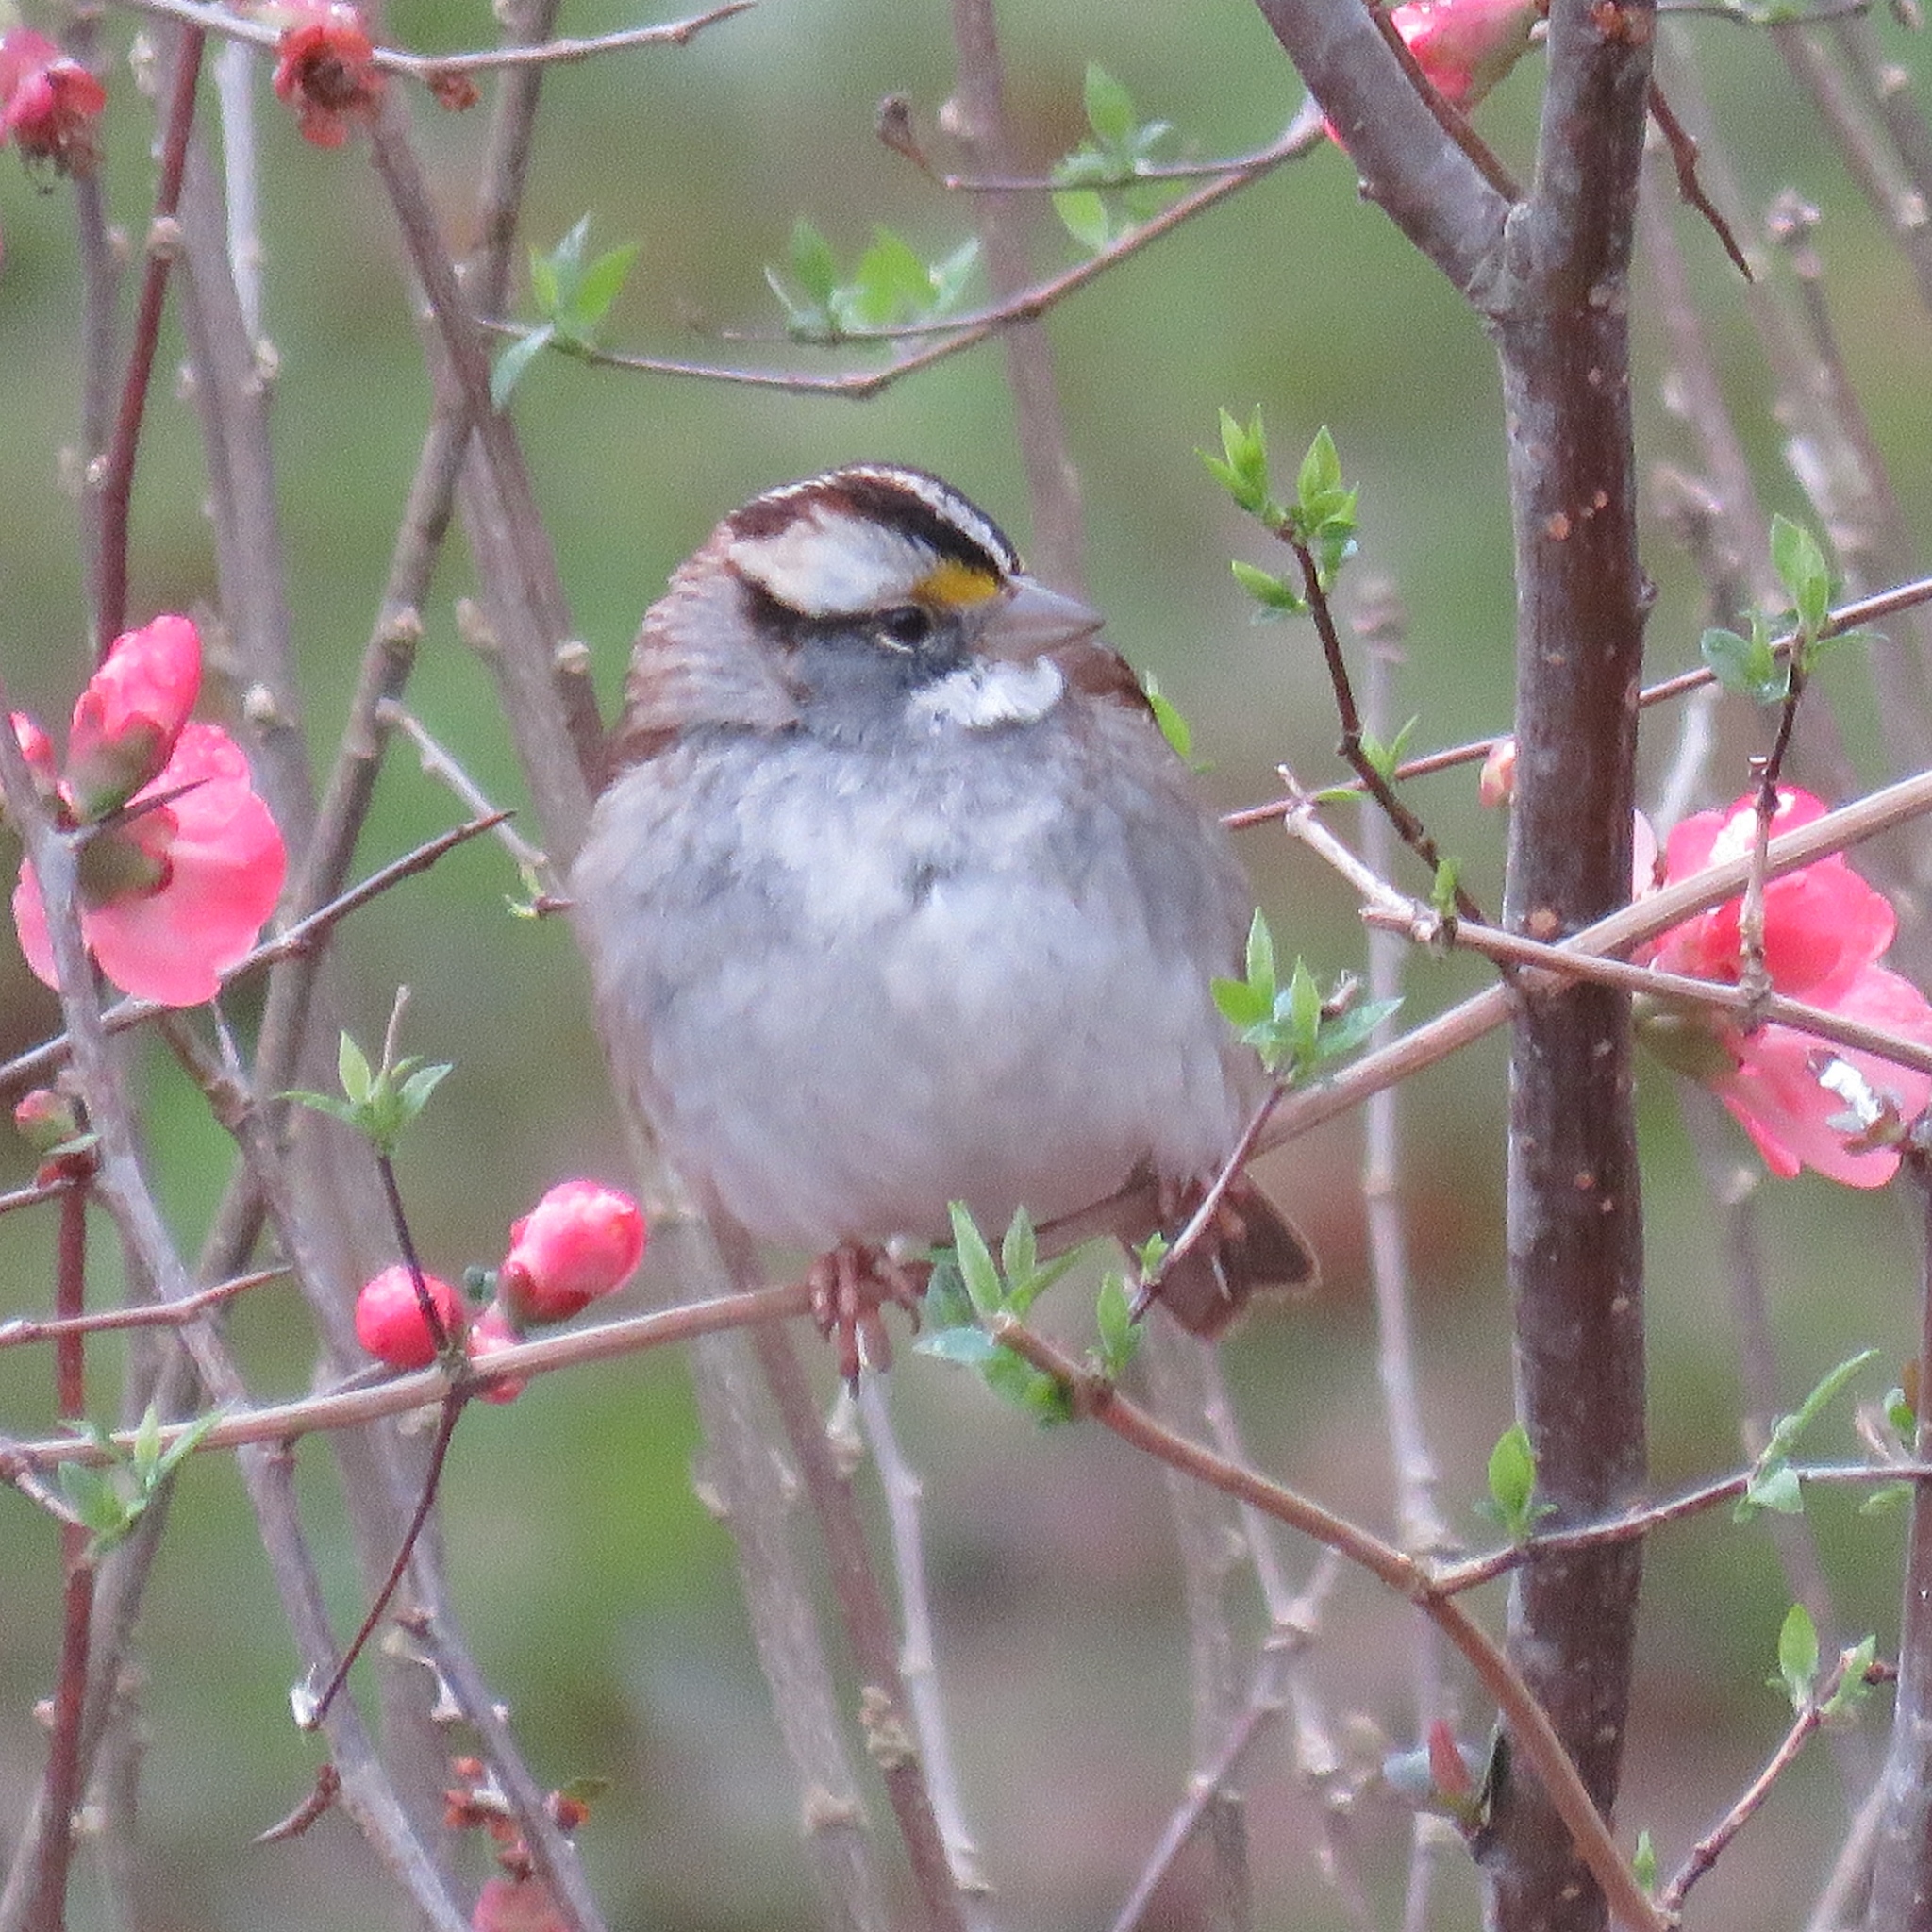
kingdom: Animalia
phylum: Chordata
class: Aves
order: Passeriformes
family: Passerellidae
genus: Zonotrichia
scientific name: Zonotrichia albicollis
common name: White-throated sparrow
